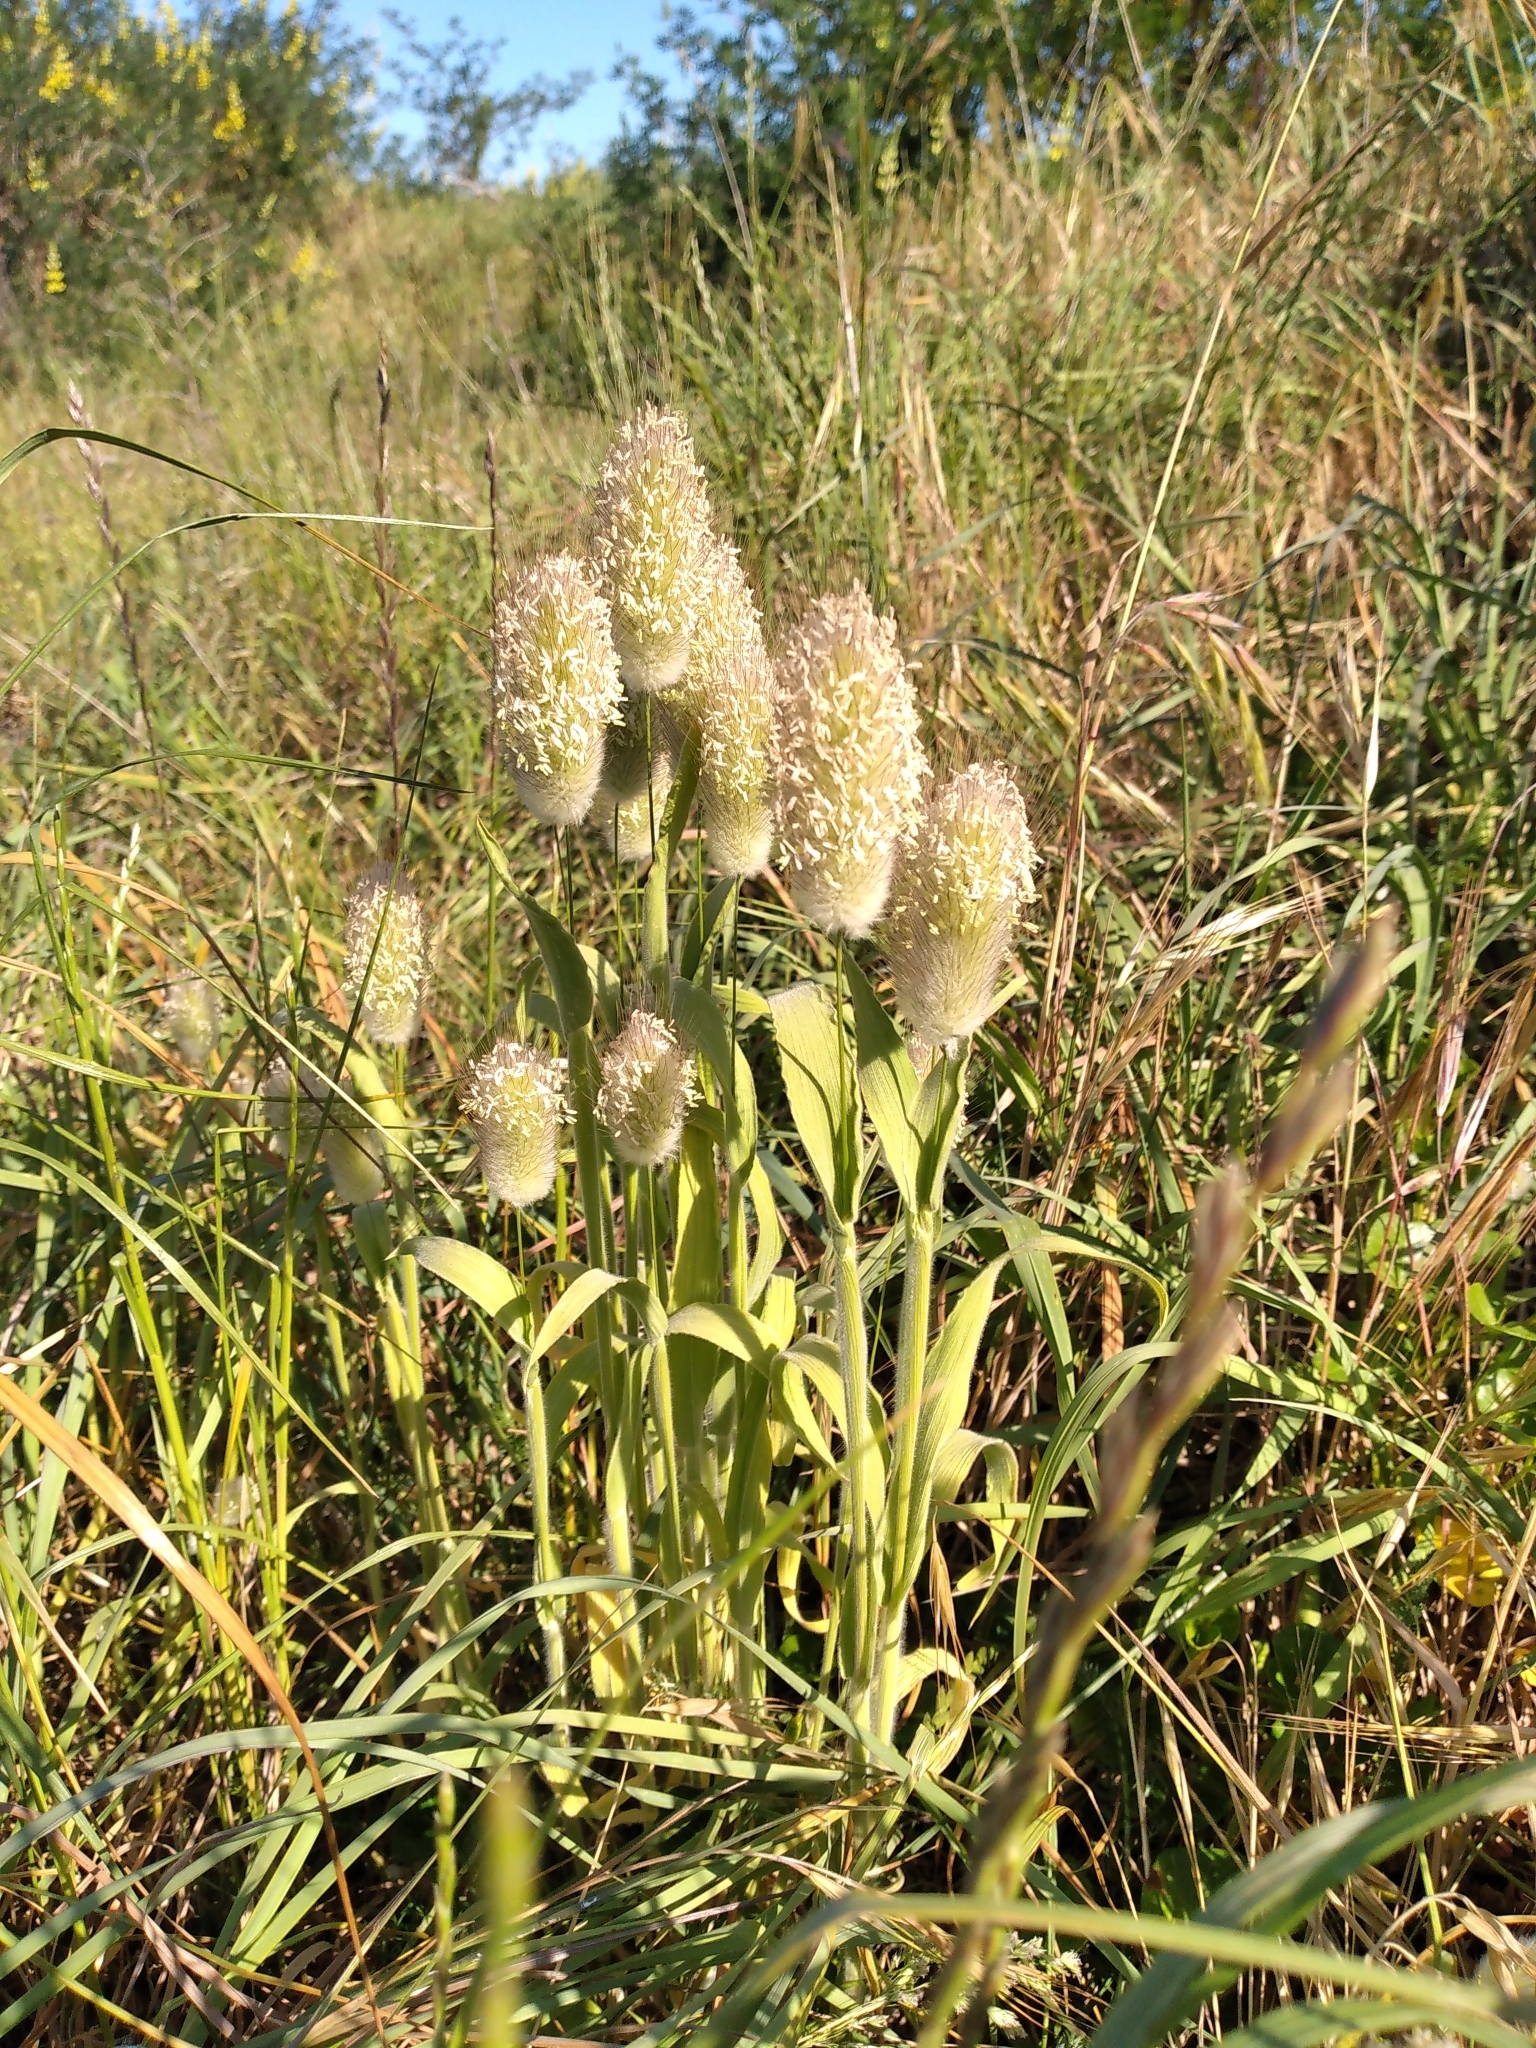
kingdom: Plantae
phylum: Tracheophyta
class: Liliopsida
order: Poales
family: Poaceae
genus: Lagurus
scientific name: Lagurus ovatus
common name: Hare's-tail
